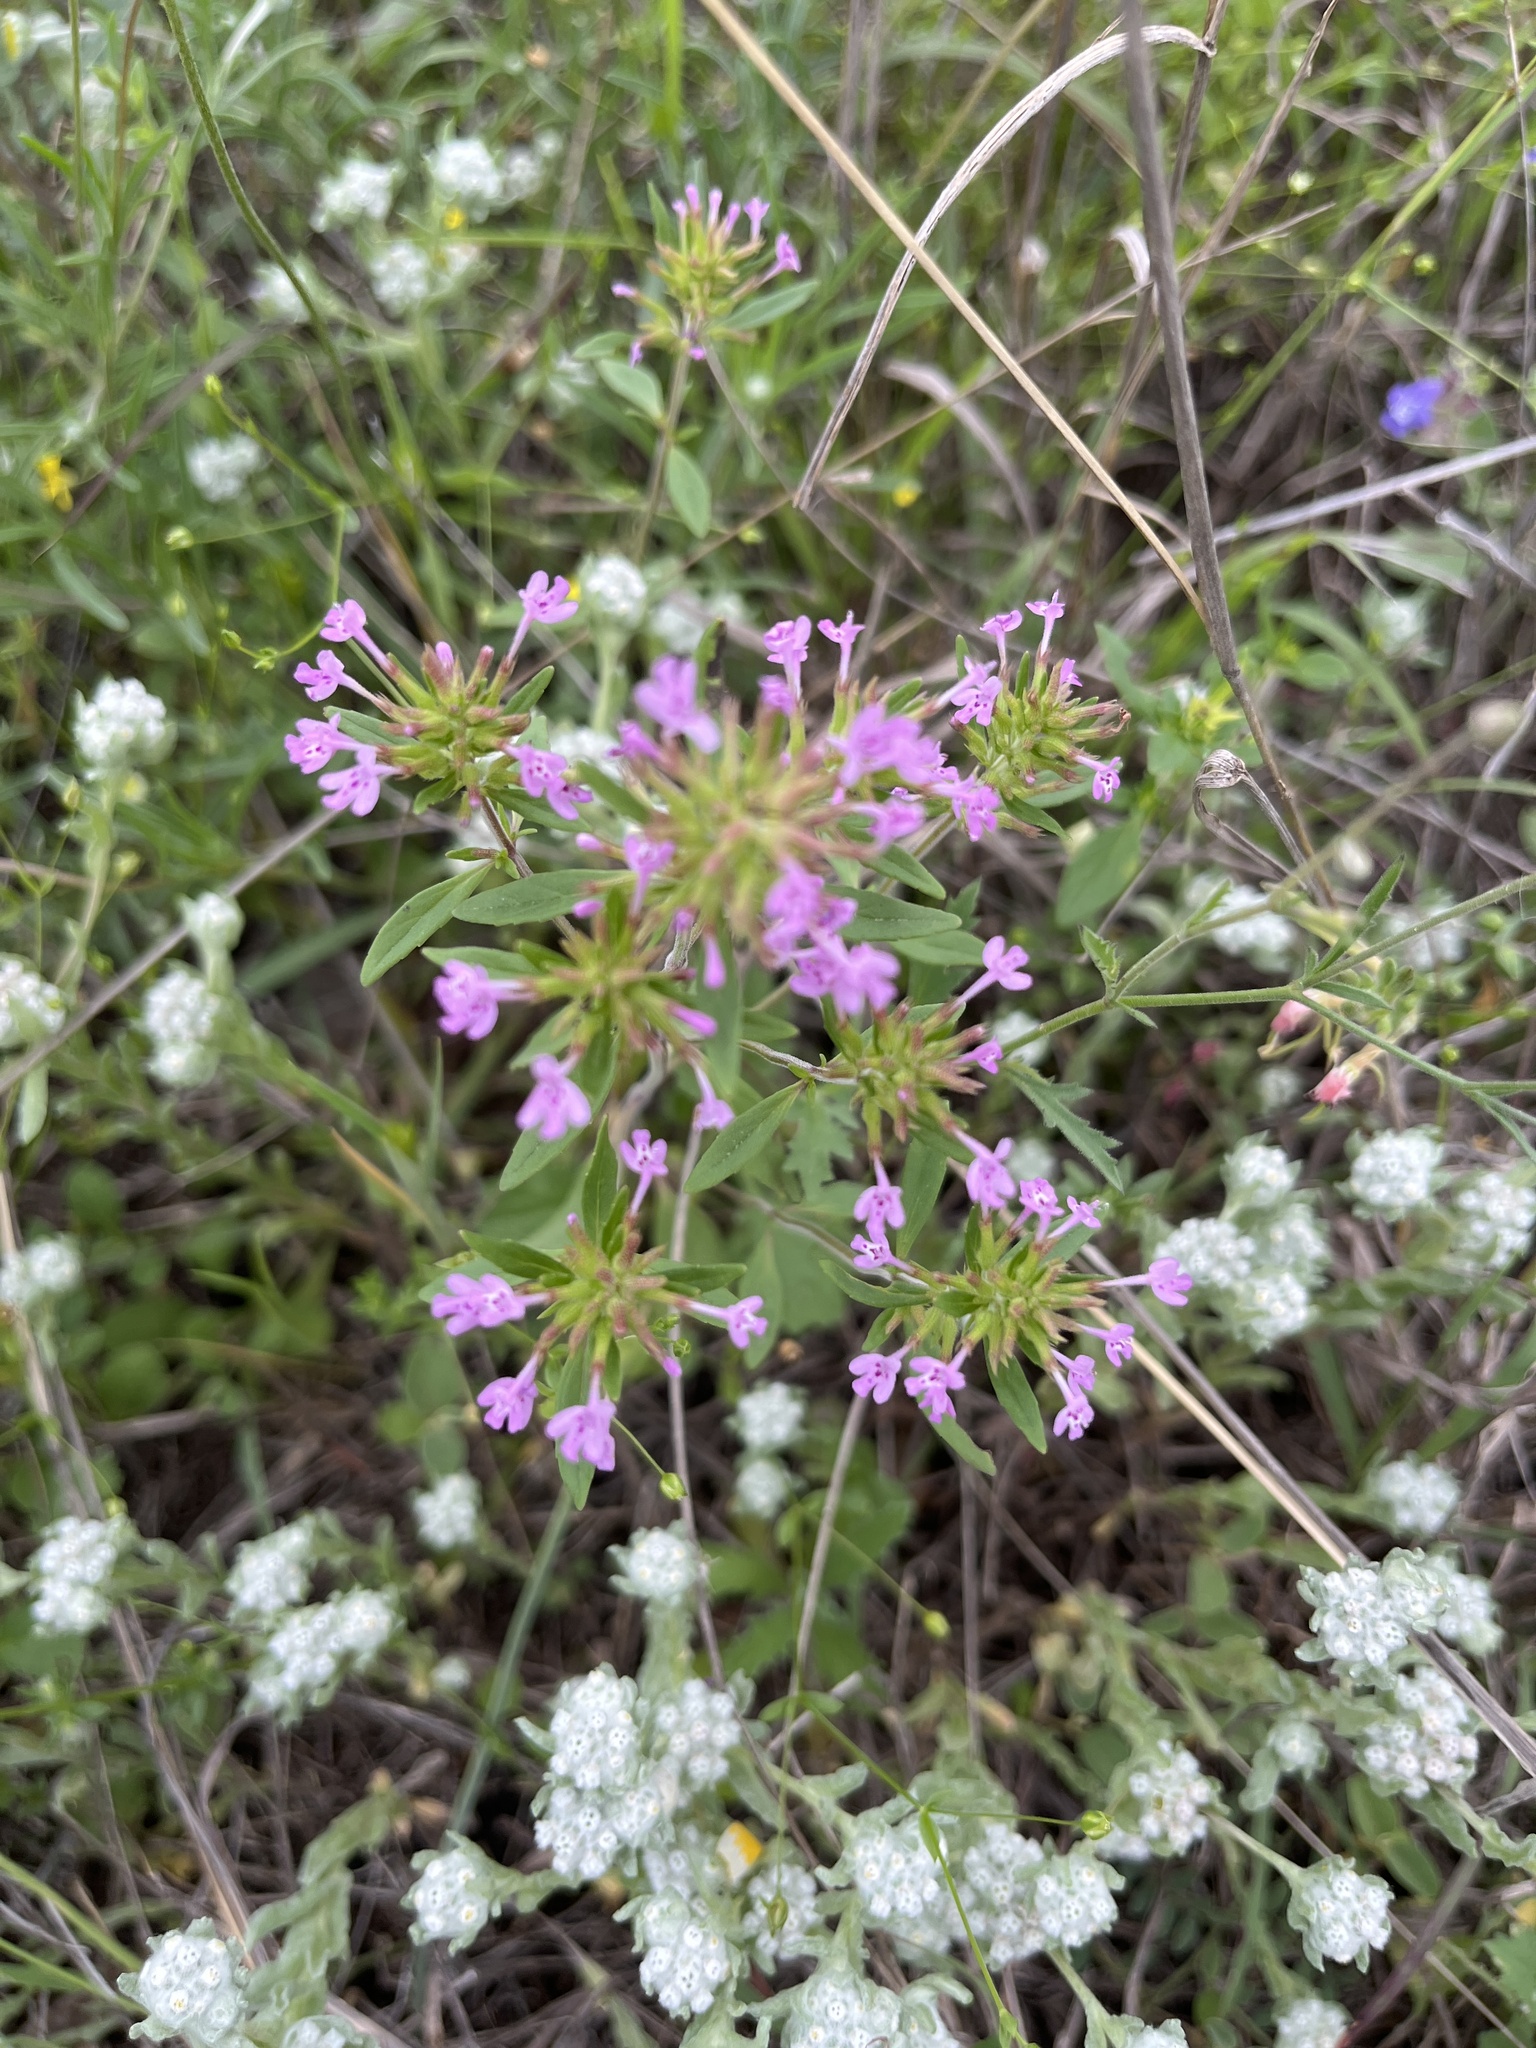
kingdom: Plantae
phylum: Tracheophyta
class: Magnoliopsida
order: Lamiales
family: Lamiaceae
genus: Hedeoma
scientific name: Hedeoma acinoides
